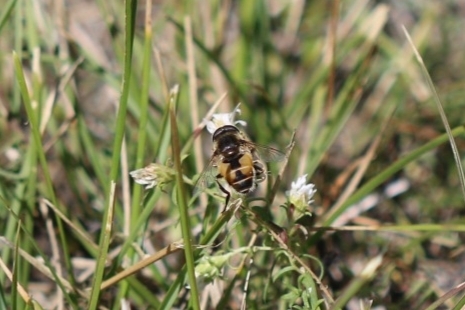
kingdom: Animalia
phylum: Arthropoda
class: Insecta
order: Diptera
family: Syrphidae
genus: Eristalis
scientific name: Eristalis arbustorum
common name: Hover fly
